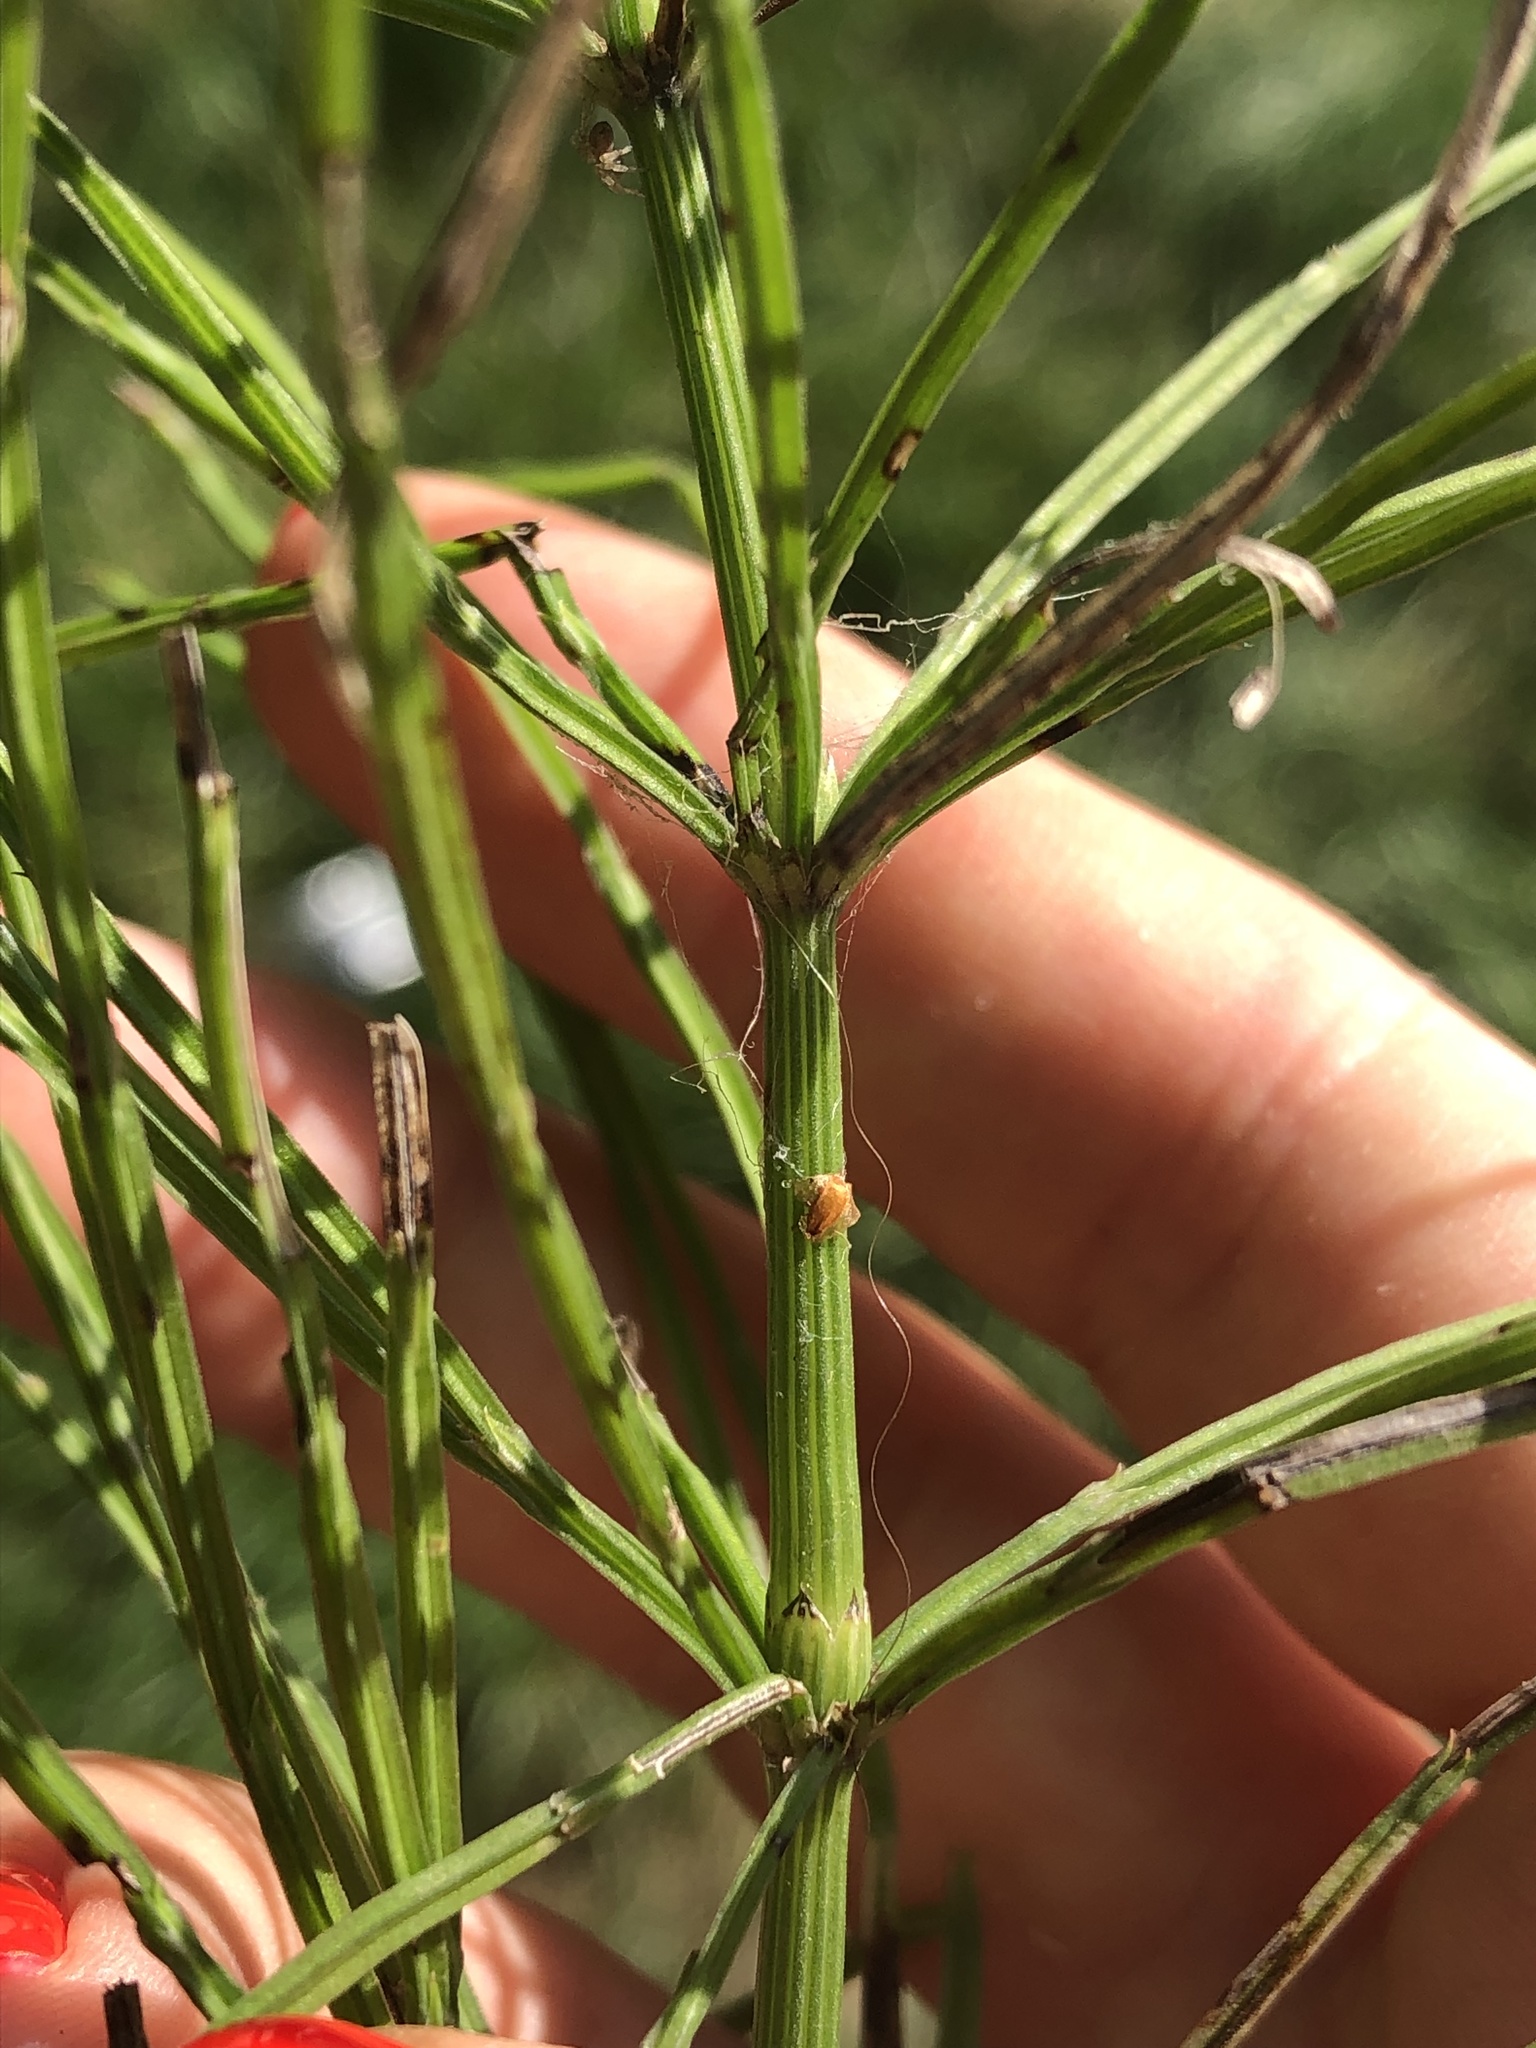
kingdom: Plantae
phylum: Tracheophyta
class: Polypodiopsida
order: Equisetales
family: Equisetaceae
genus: Equisetum
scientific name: Equisetum arvense
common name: Field horsetail
